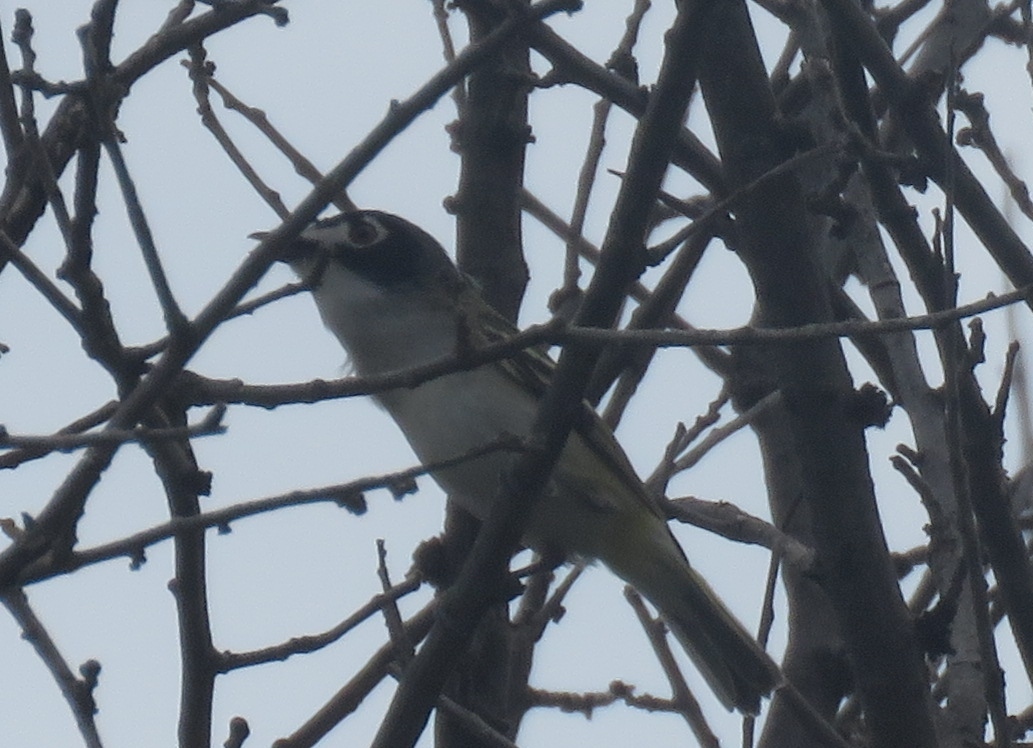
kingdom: Animalia
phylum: Chordata
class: Aves
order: Passeriformes
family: Vireonidae
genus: Vireo
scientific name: Vireo atricapilla
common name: Black-capped vireo
